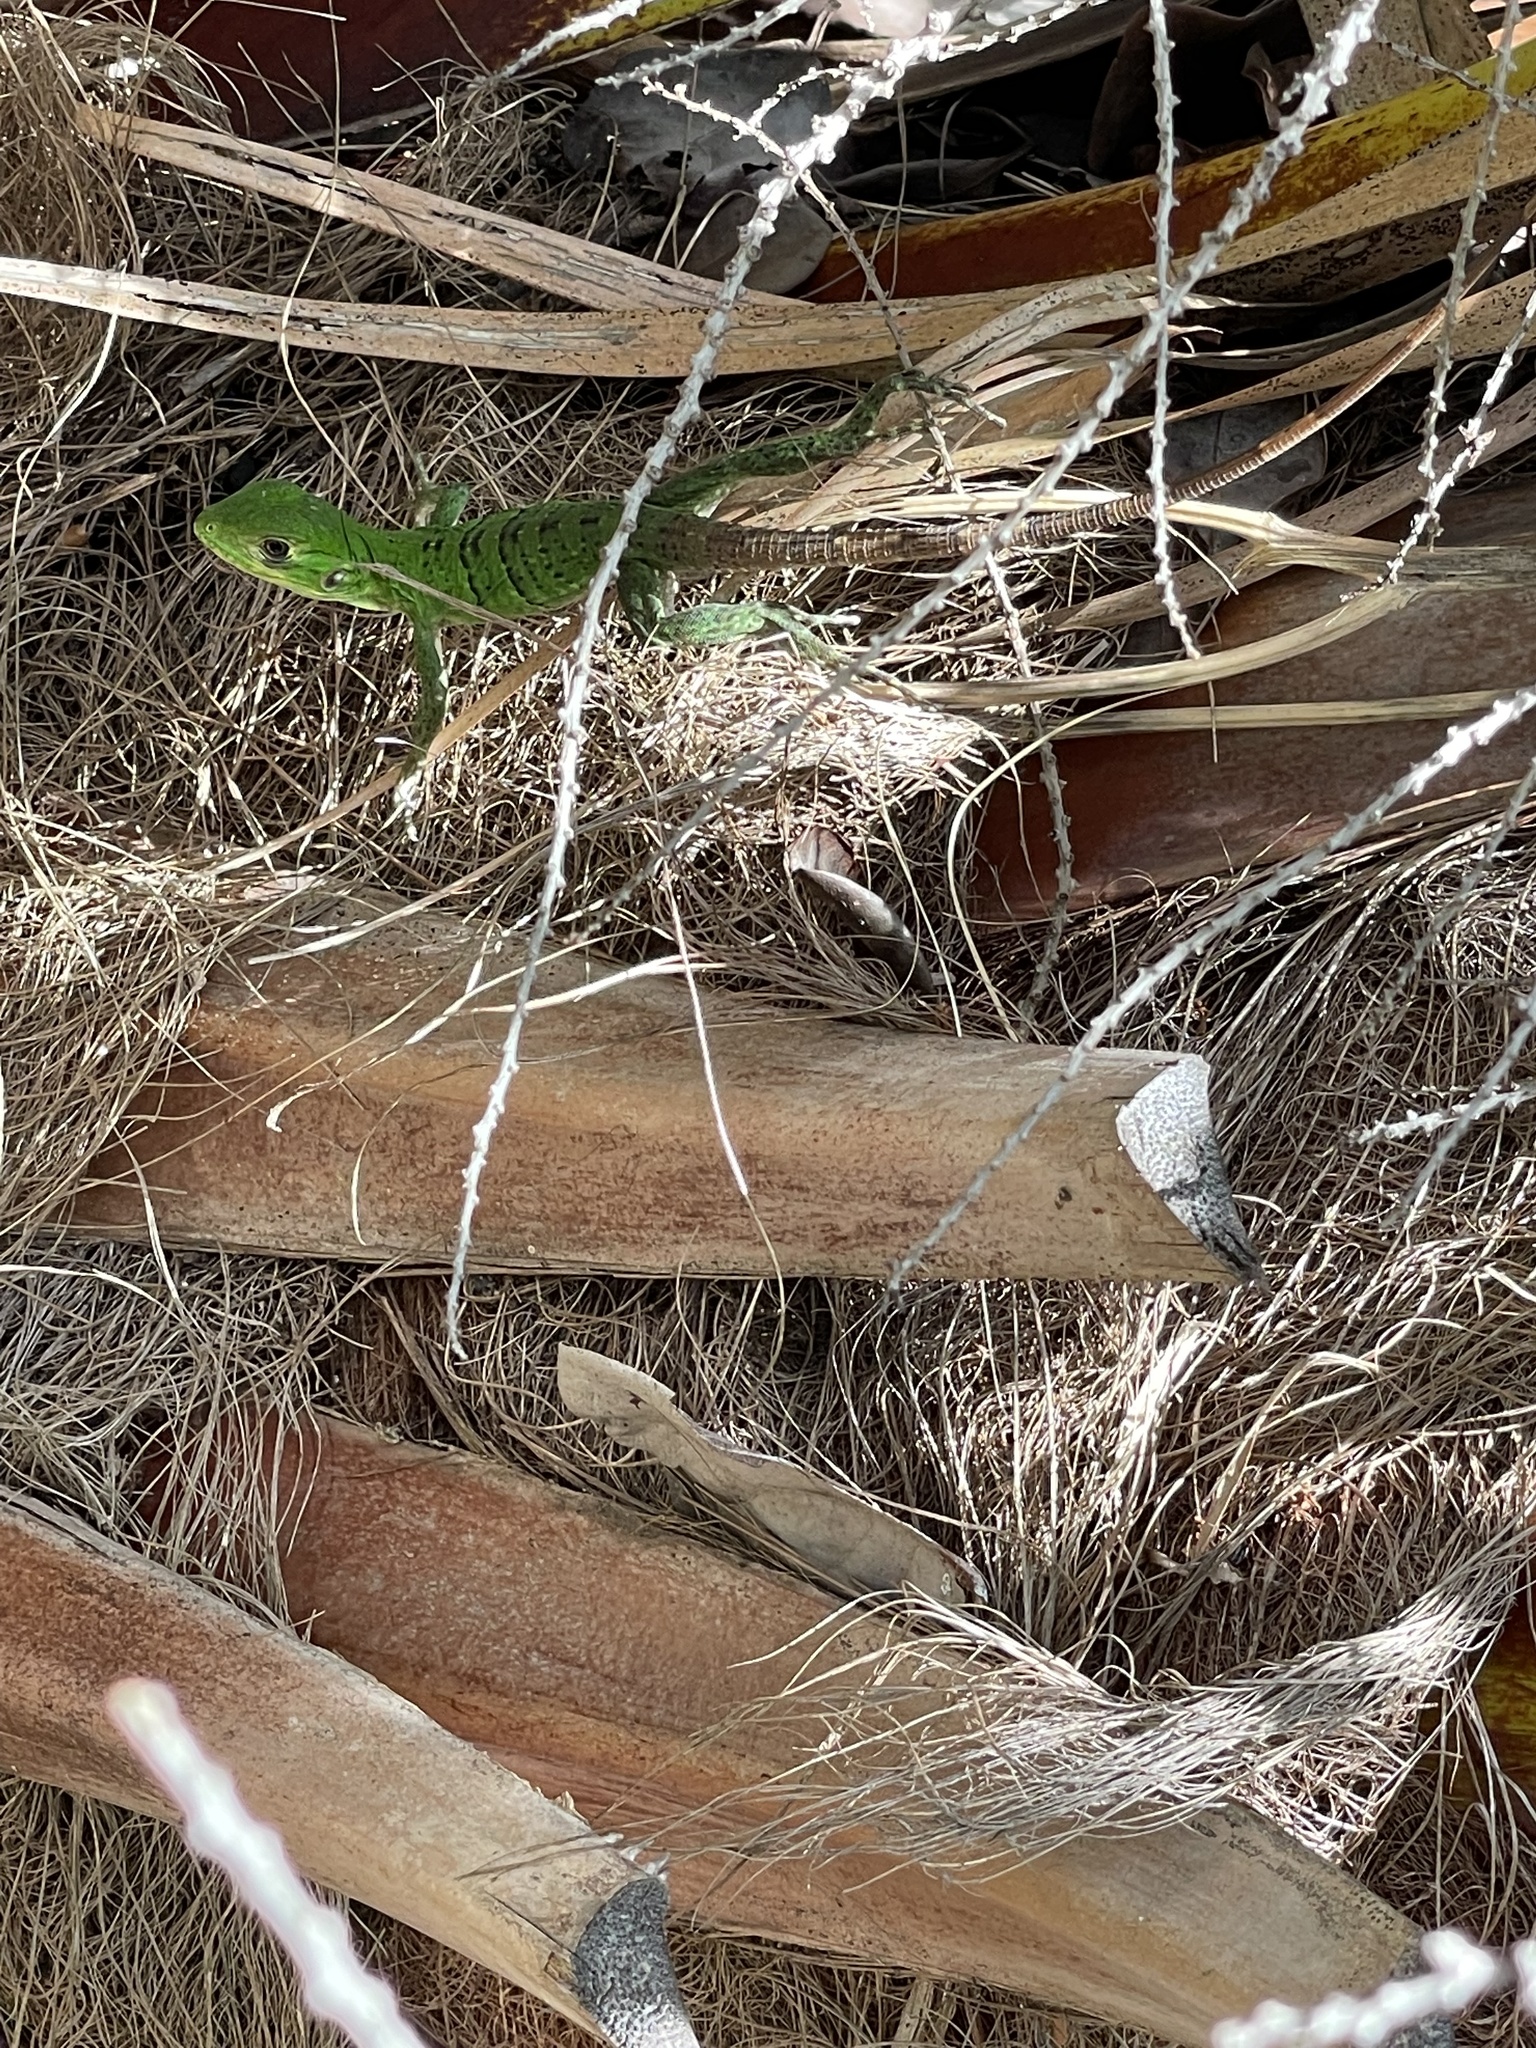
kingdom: Animalia
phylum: Chordata
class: Squamata
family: Iguanidae
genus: Ctenosaura
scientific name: Ctenosaura similis
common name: Black spiny-tailed iguana
